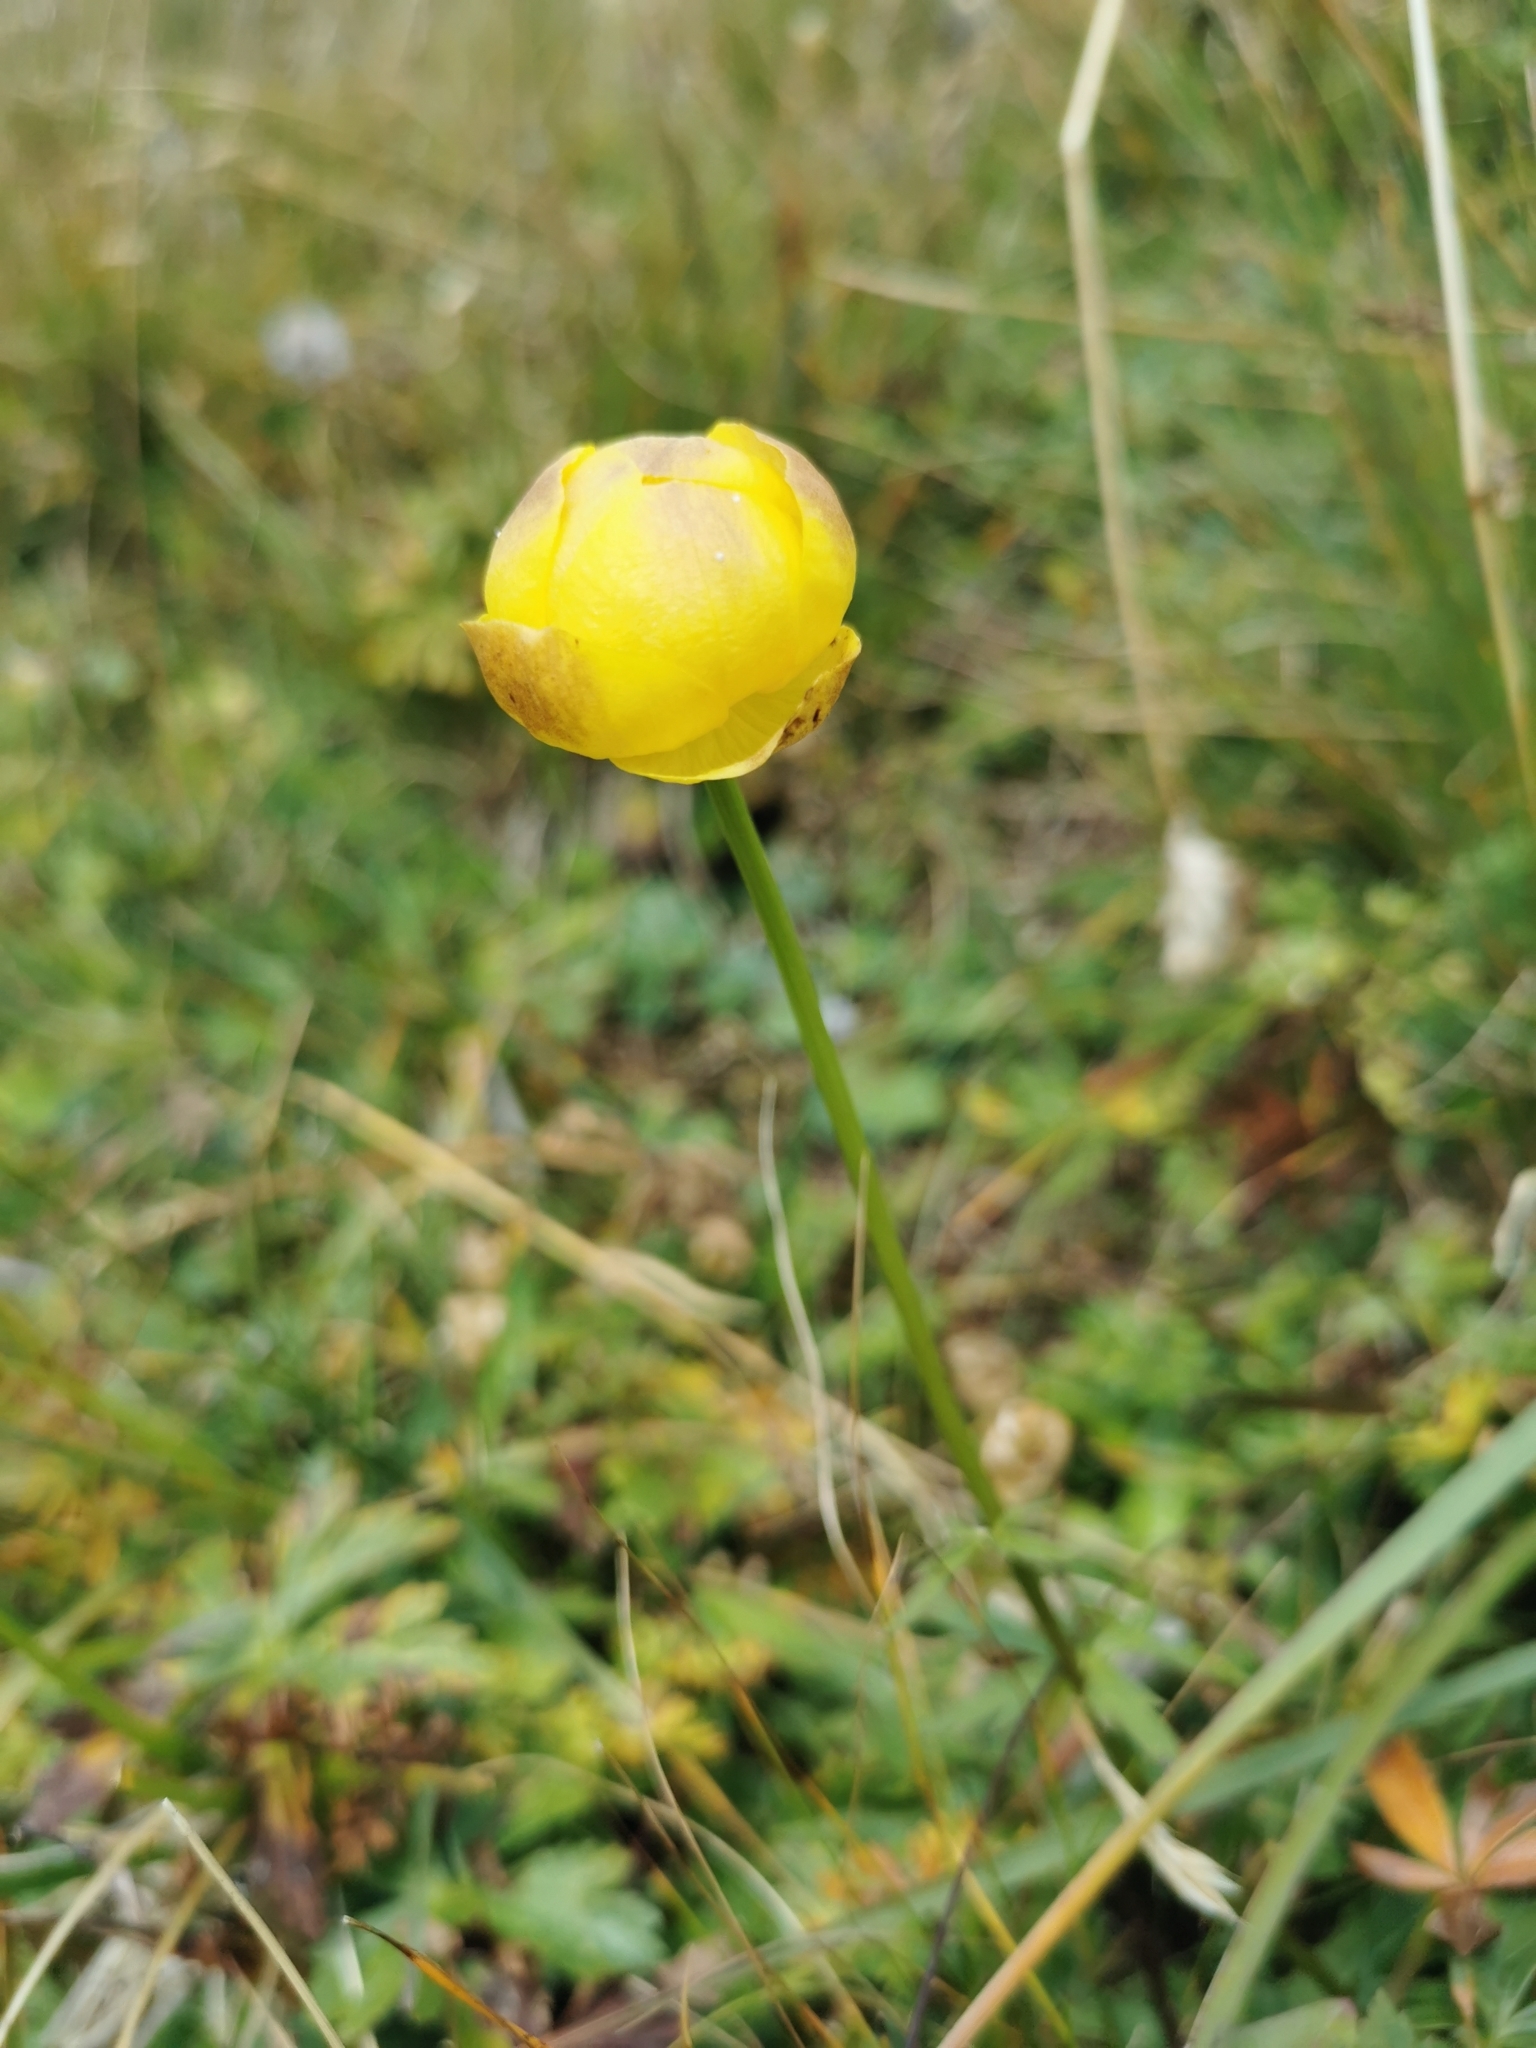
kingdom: Plantae
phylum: Tracheophyta
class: Magnoliopsida
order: Ranunculales
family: Ranunculaceae
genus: Trollius
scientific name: Trollius europaeus
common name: European globeflower
